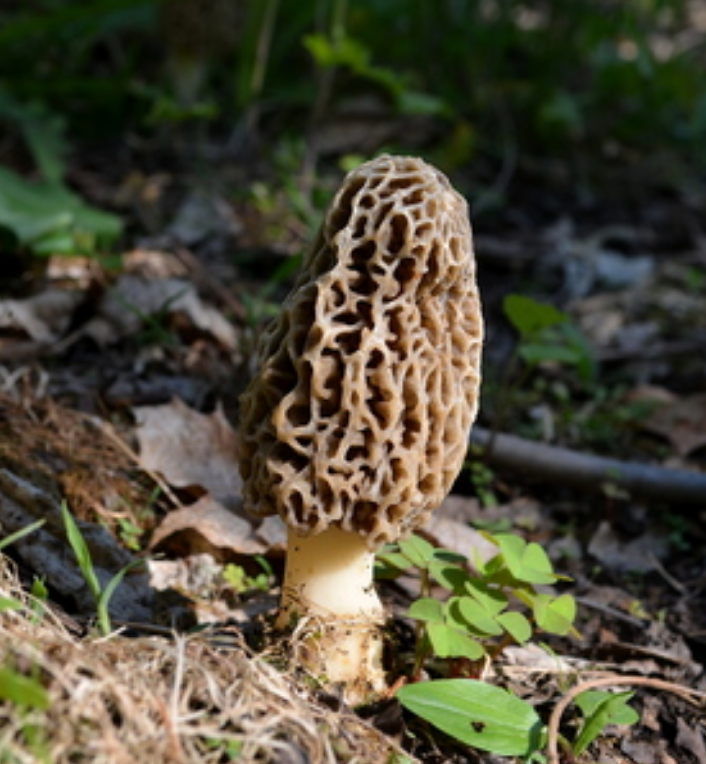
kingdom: Fungi
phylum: Ascomycota
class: Pezizomycetes
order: Pezizales
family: Morchellaceae
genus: Morchella
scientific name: Morchella americana
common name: White morel
